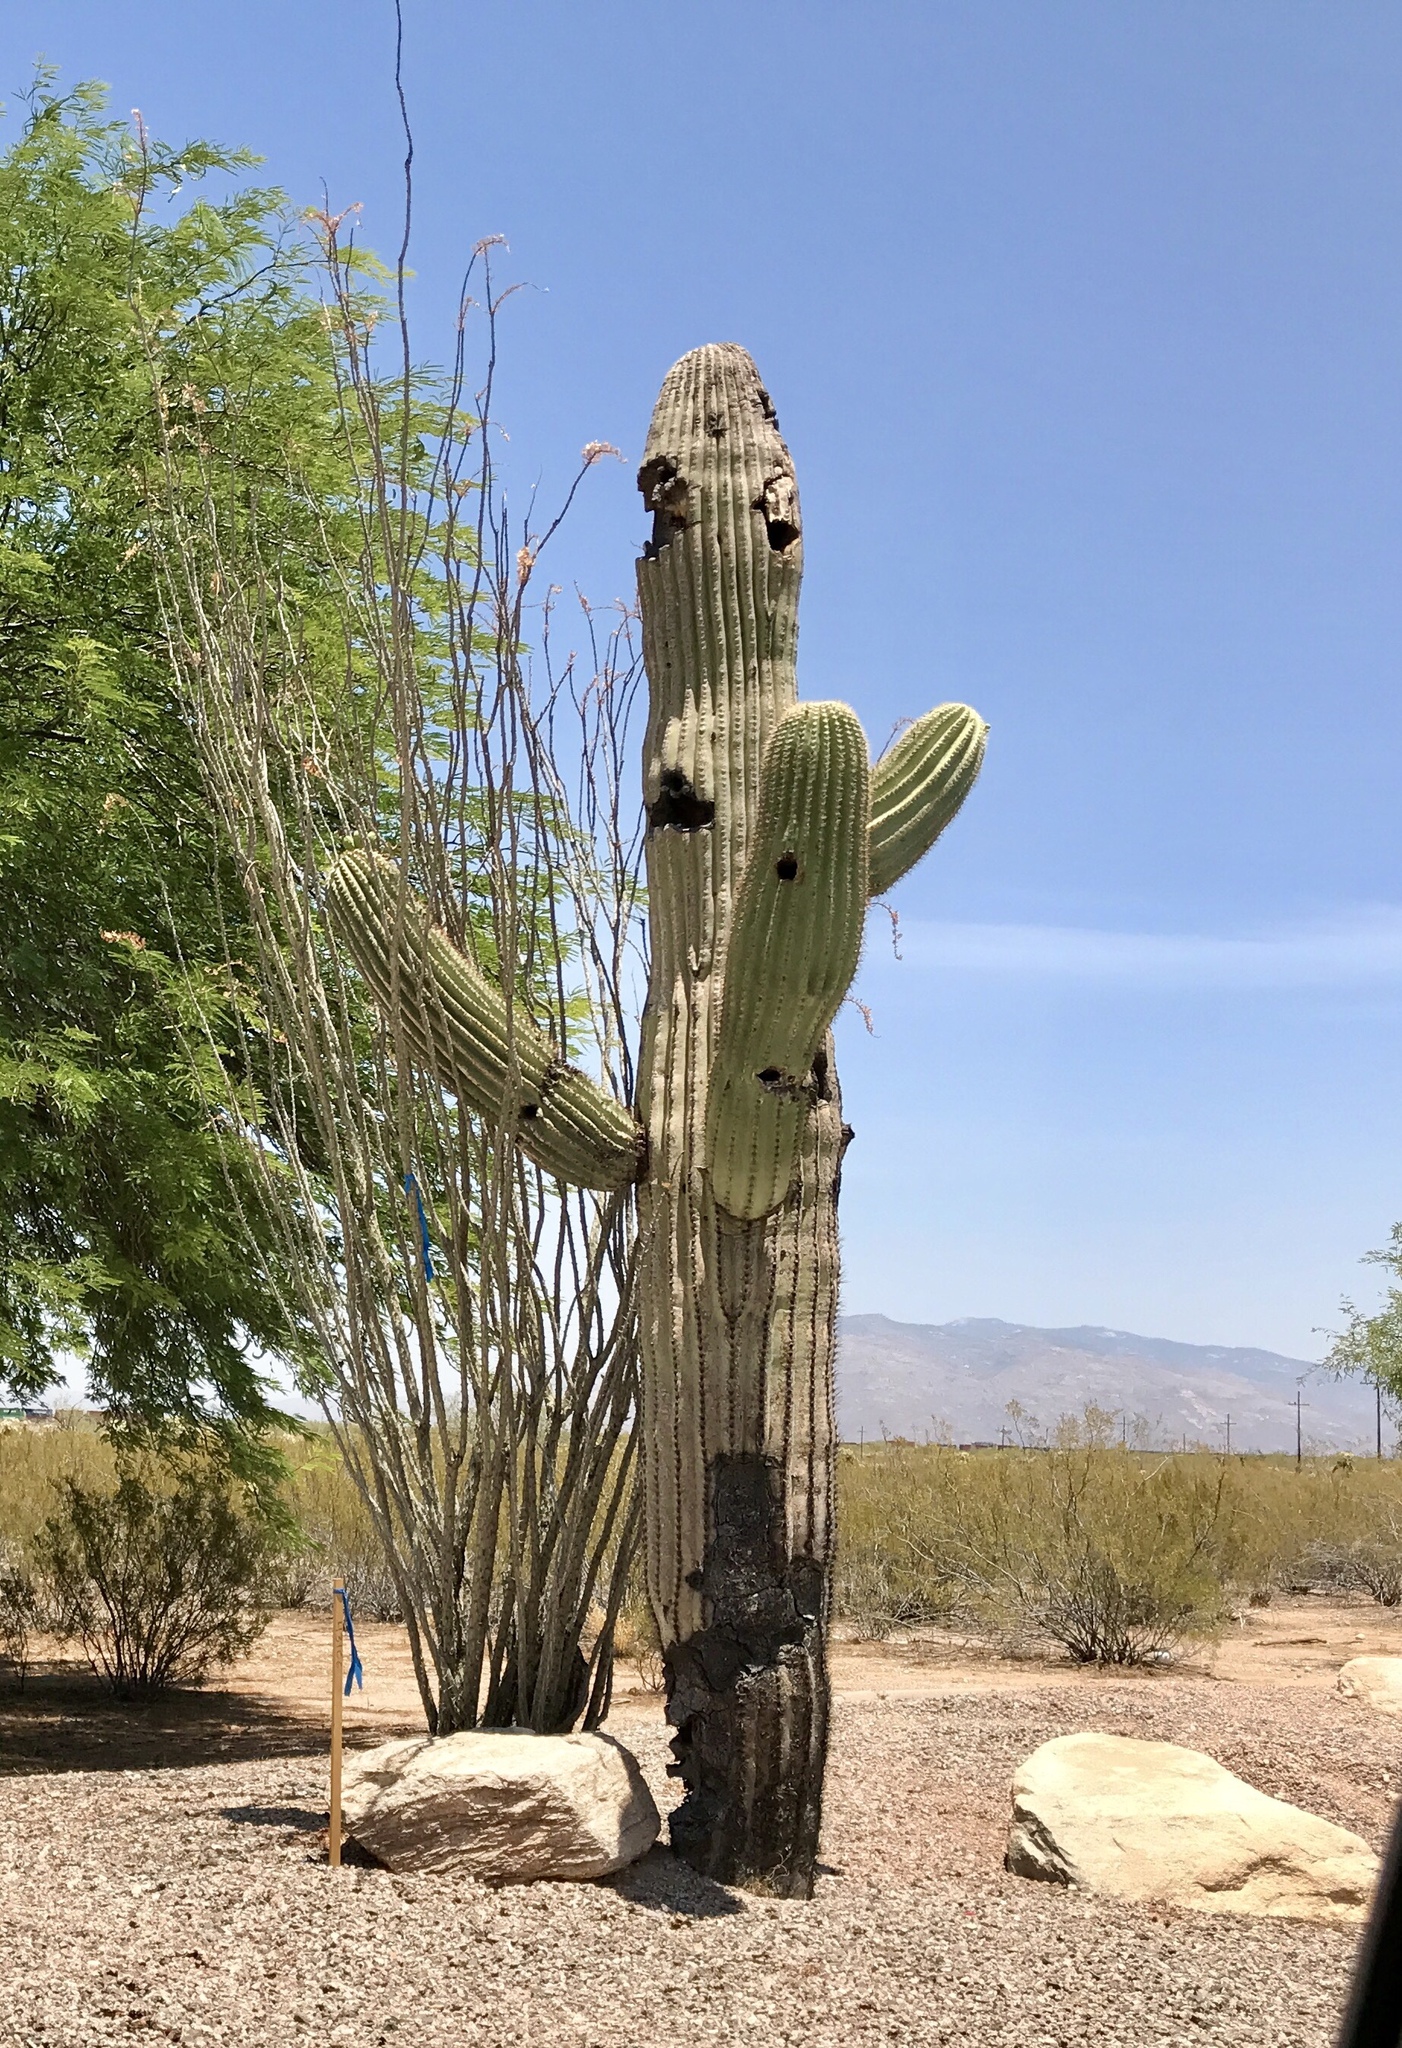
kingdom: Plantae
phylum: Tracheophyta
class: Magnoliopsida
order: Caryophyllales
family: Cactaceae
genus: Carnegiea
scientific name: Carnegiea gigantea
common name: Saguaro
